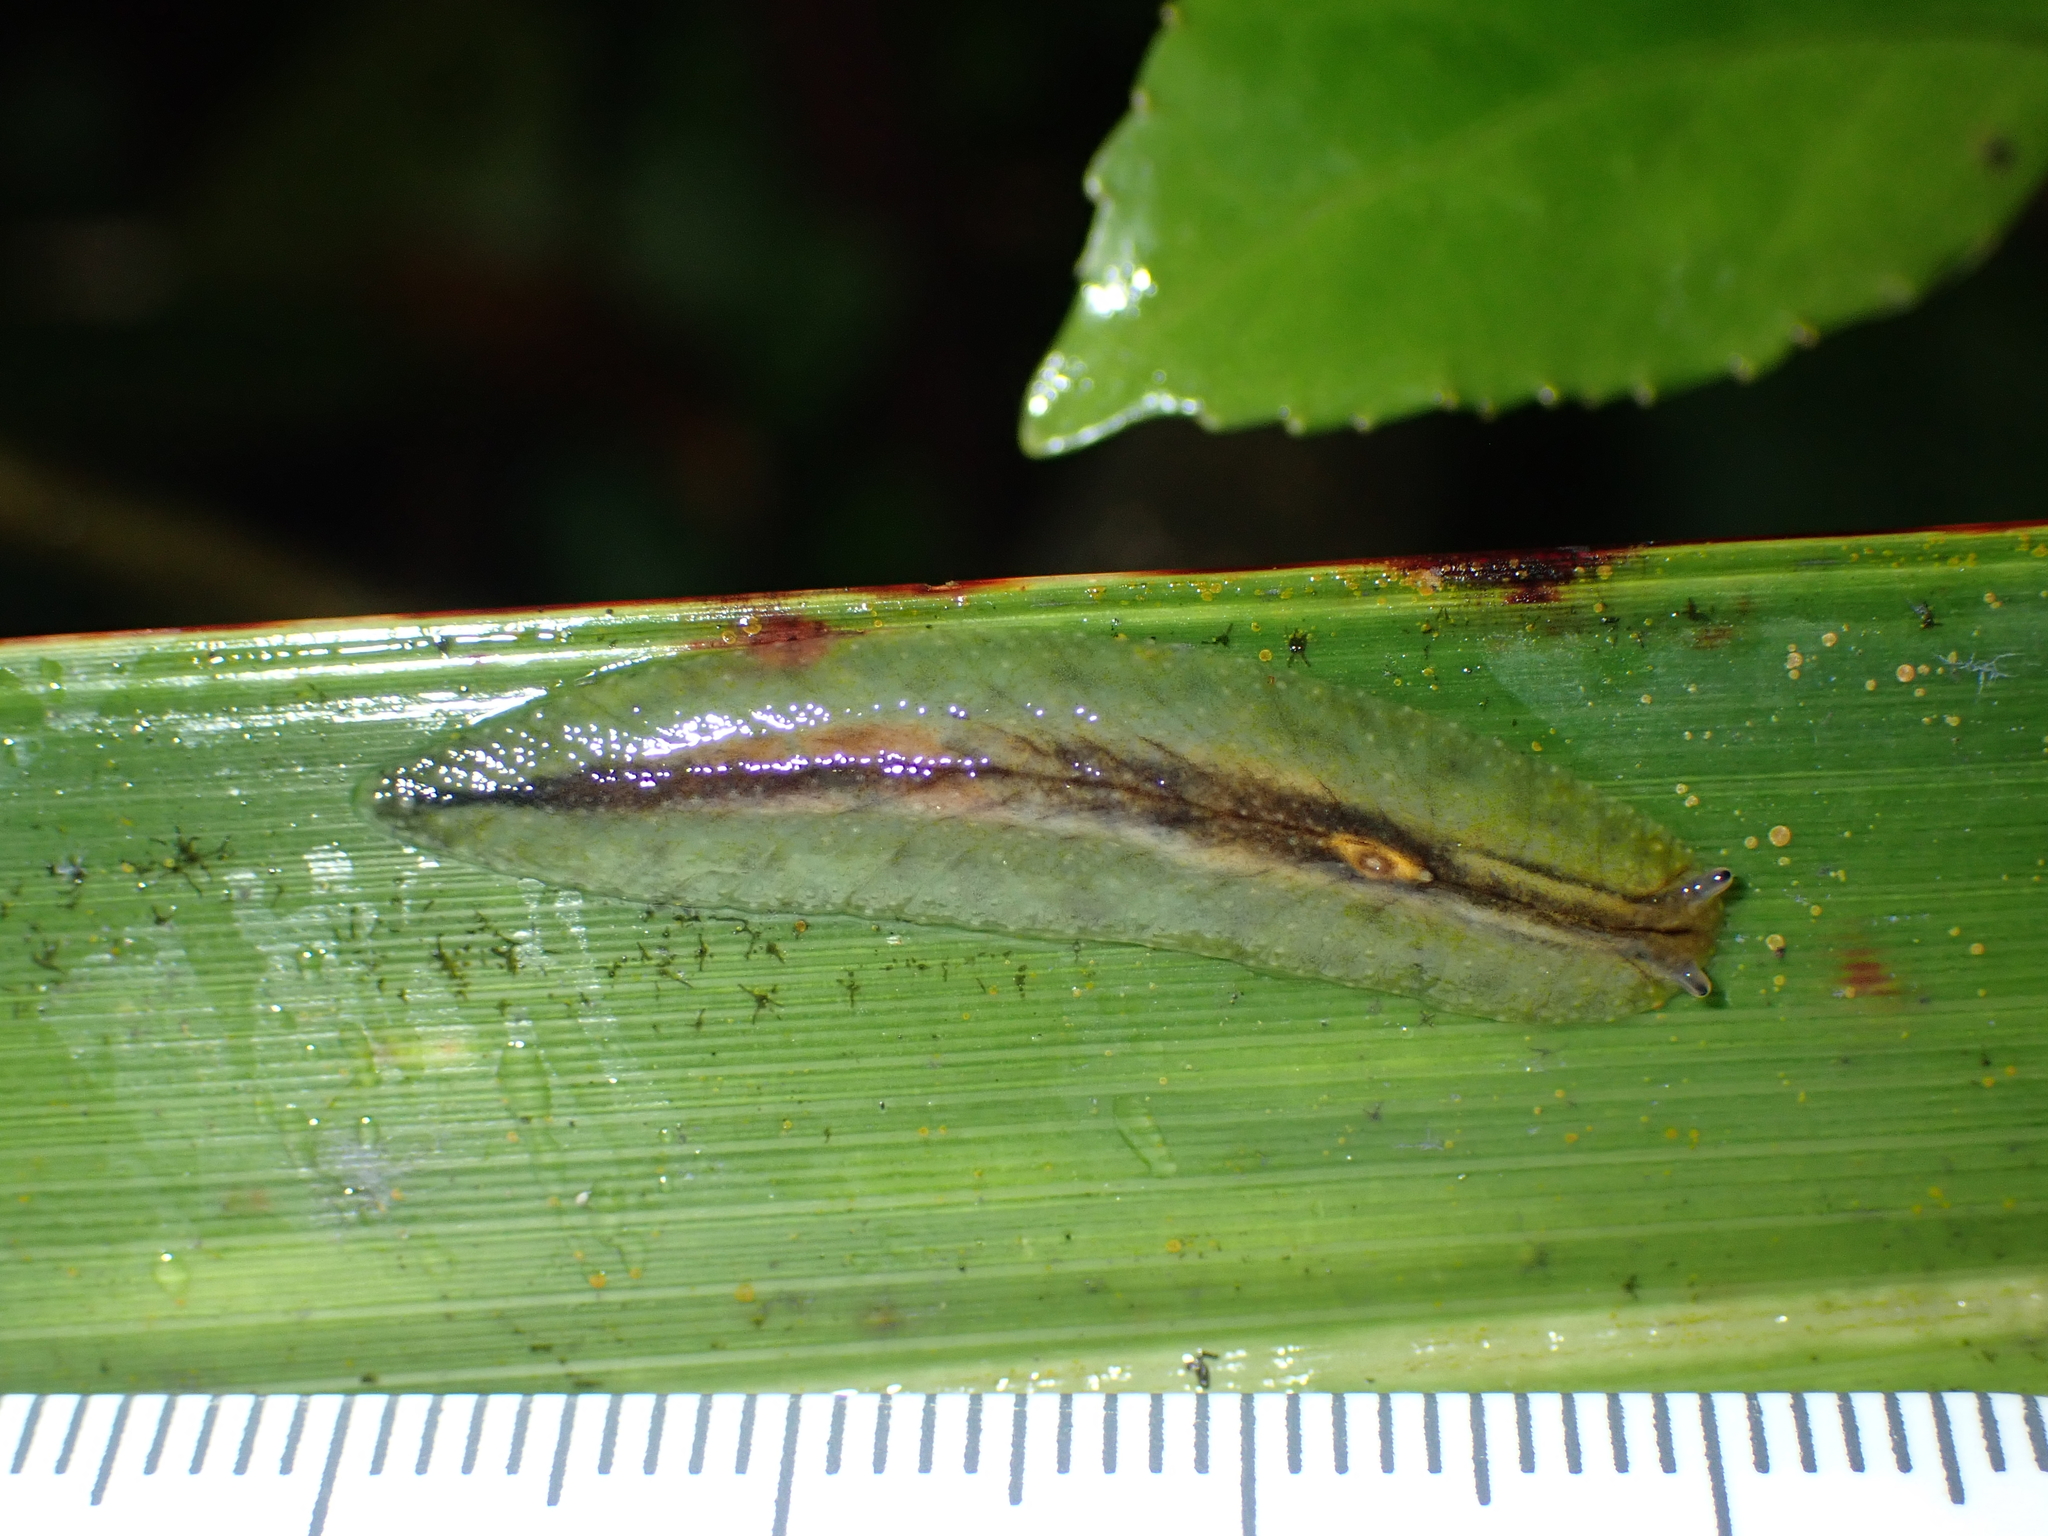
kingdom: Animalia
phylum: Mollusca
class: Gastropoda
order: Stylommatophora
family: Athoracophoridae
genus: Athoracophorus
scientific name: Athoracophorus
